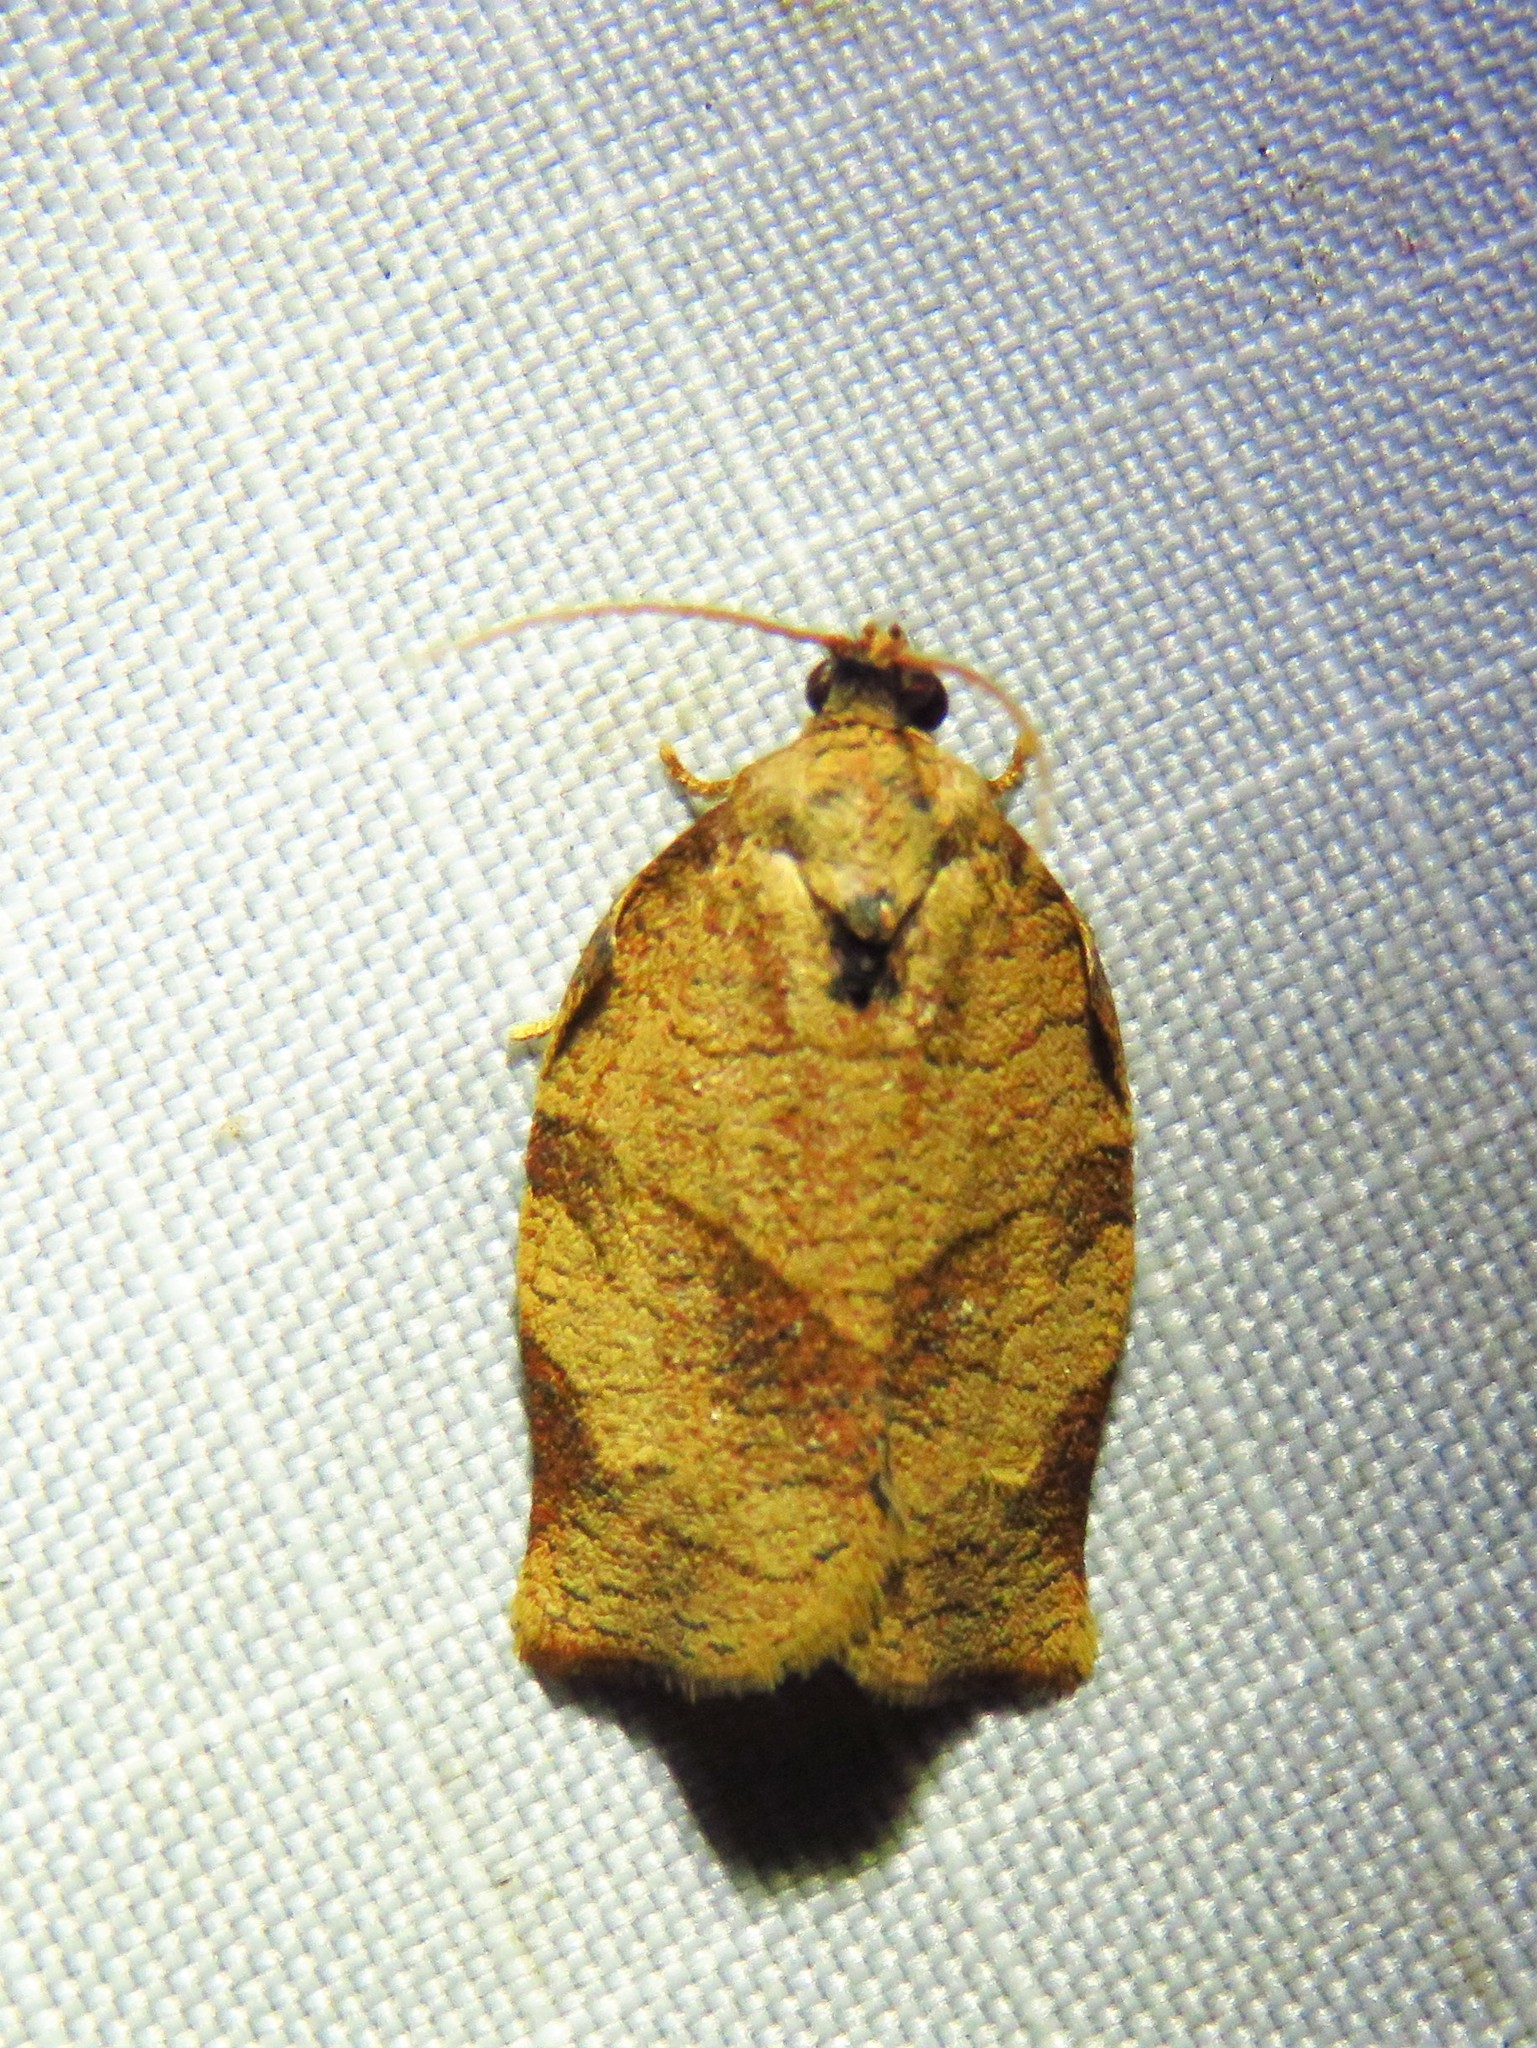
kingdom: Animalia
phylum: Arthropoda
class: Insecta
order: Lepidoptera
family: Tortricidae
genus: Choristoneura
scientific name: Choristoneura rosaceana
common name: Oblique-banded leafroller moth
